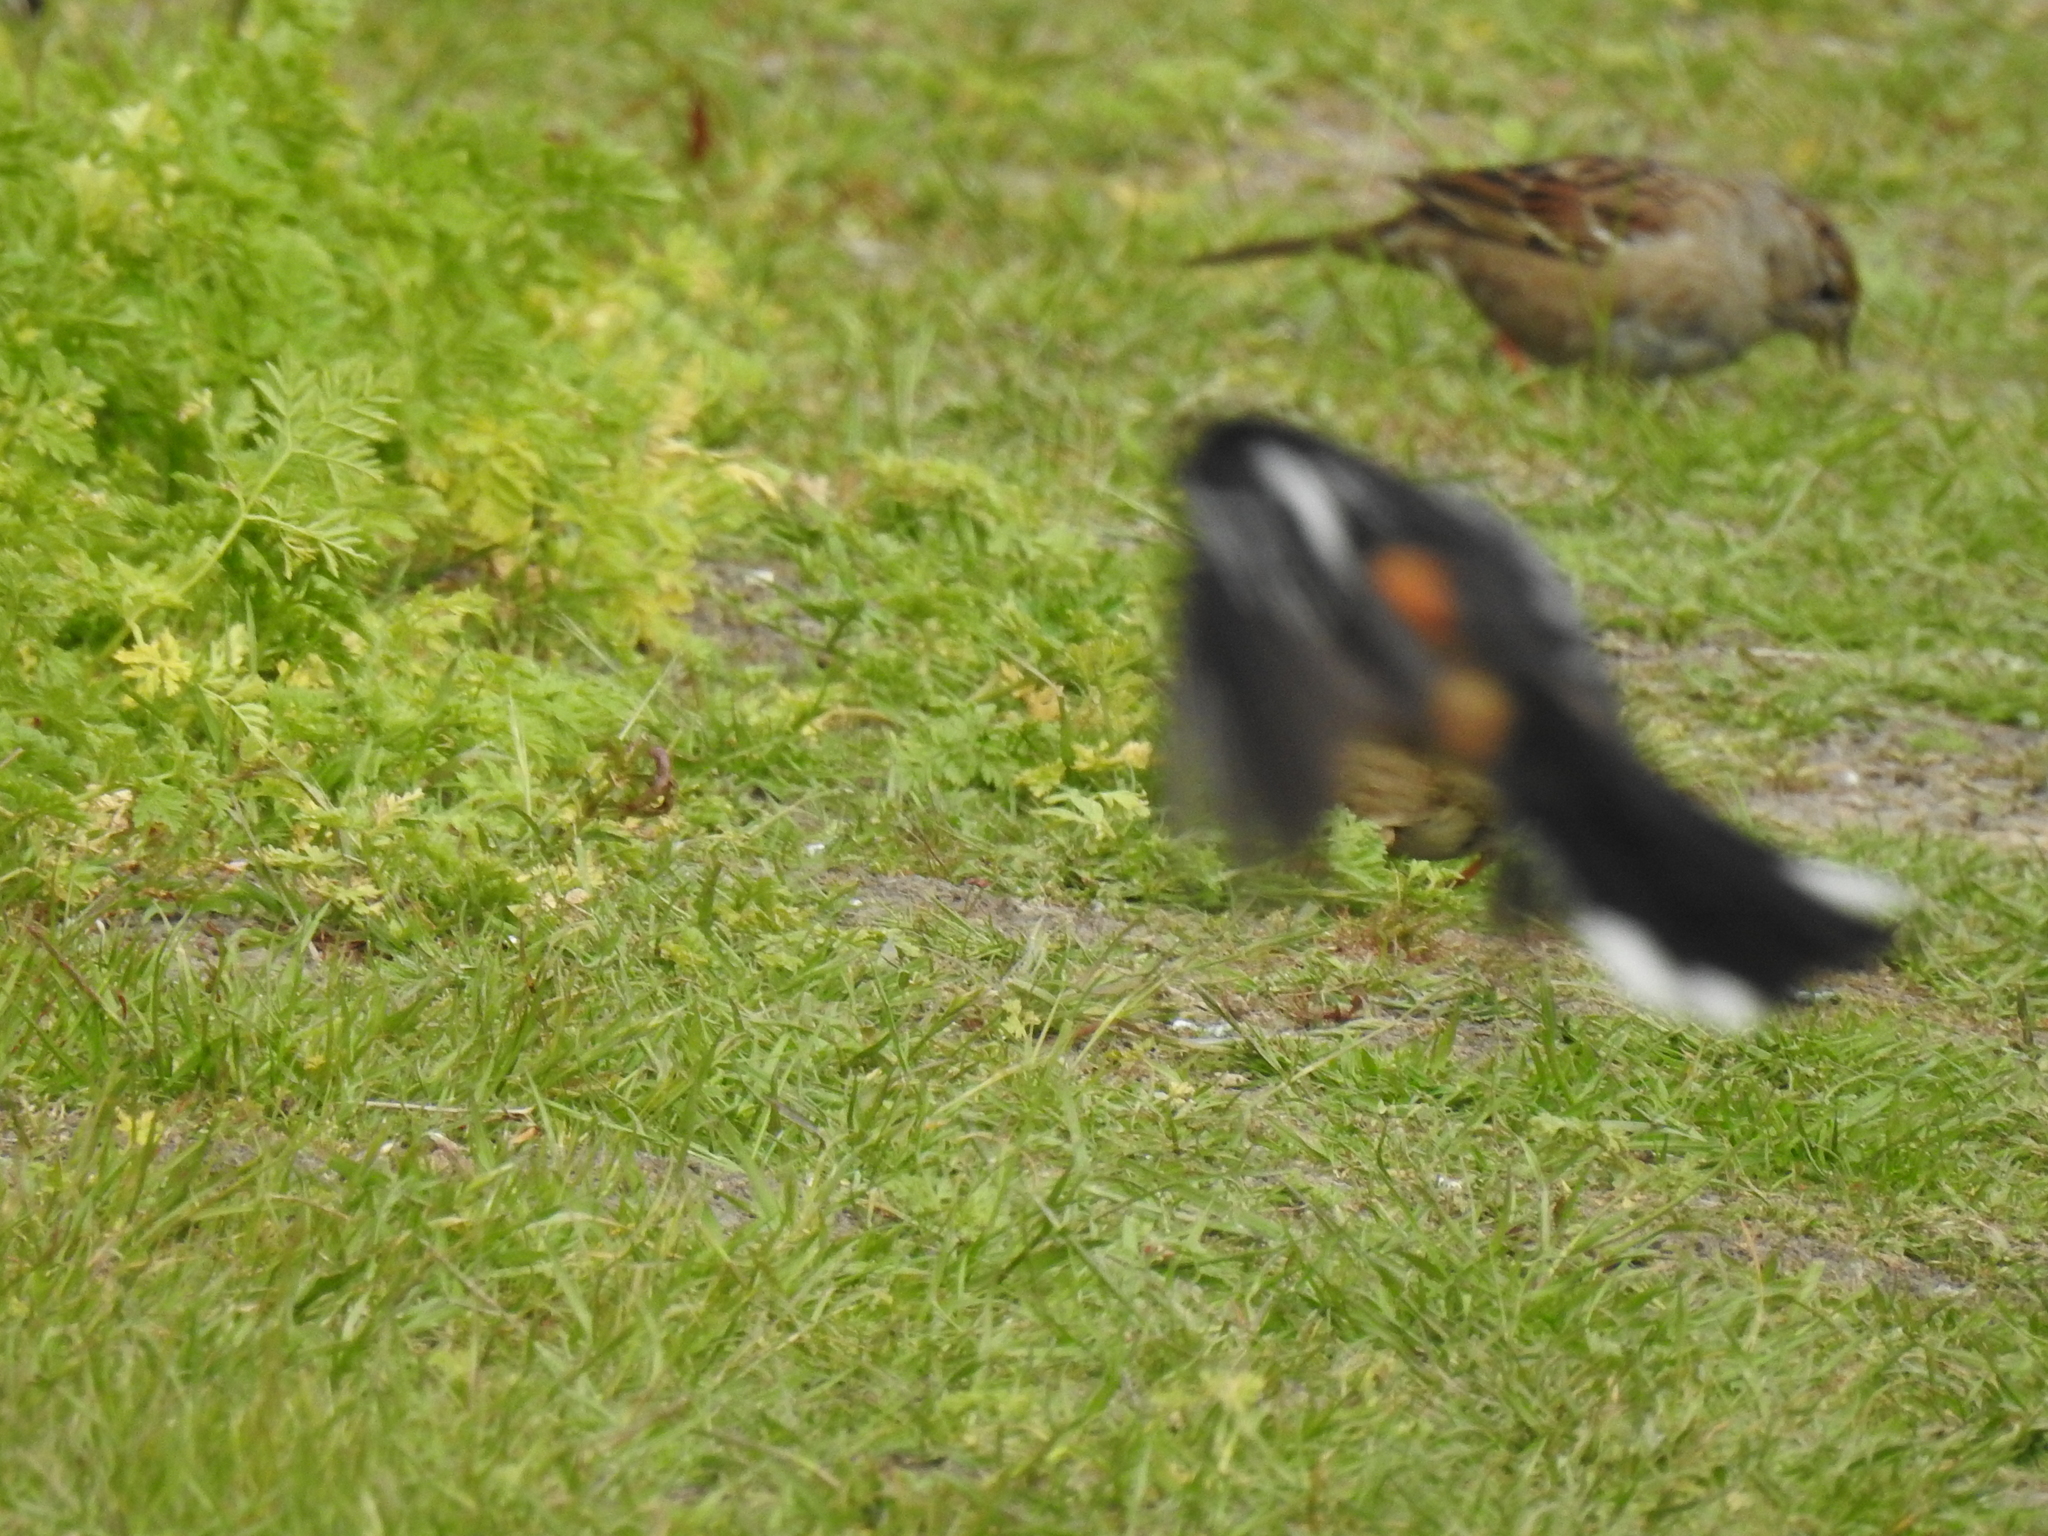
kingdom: Animalia
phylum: Chordata
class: Aves
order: Passeriformes
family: Passerellidae
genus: Pipilo
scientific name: Pipilo maculatus
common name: Spotted towhee
